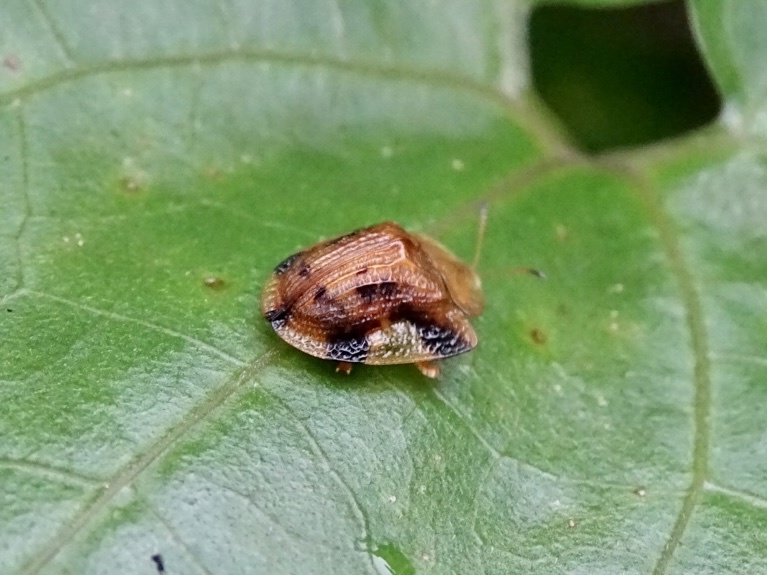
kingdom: Animalia
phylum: Arthropoda
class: Insecta
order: Coleoptera
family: Chrysomelidae
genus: Laccoptera
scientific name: Laccoptera nepalensis
